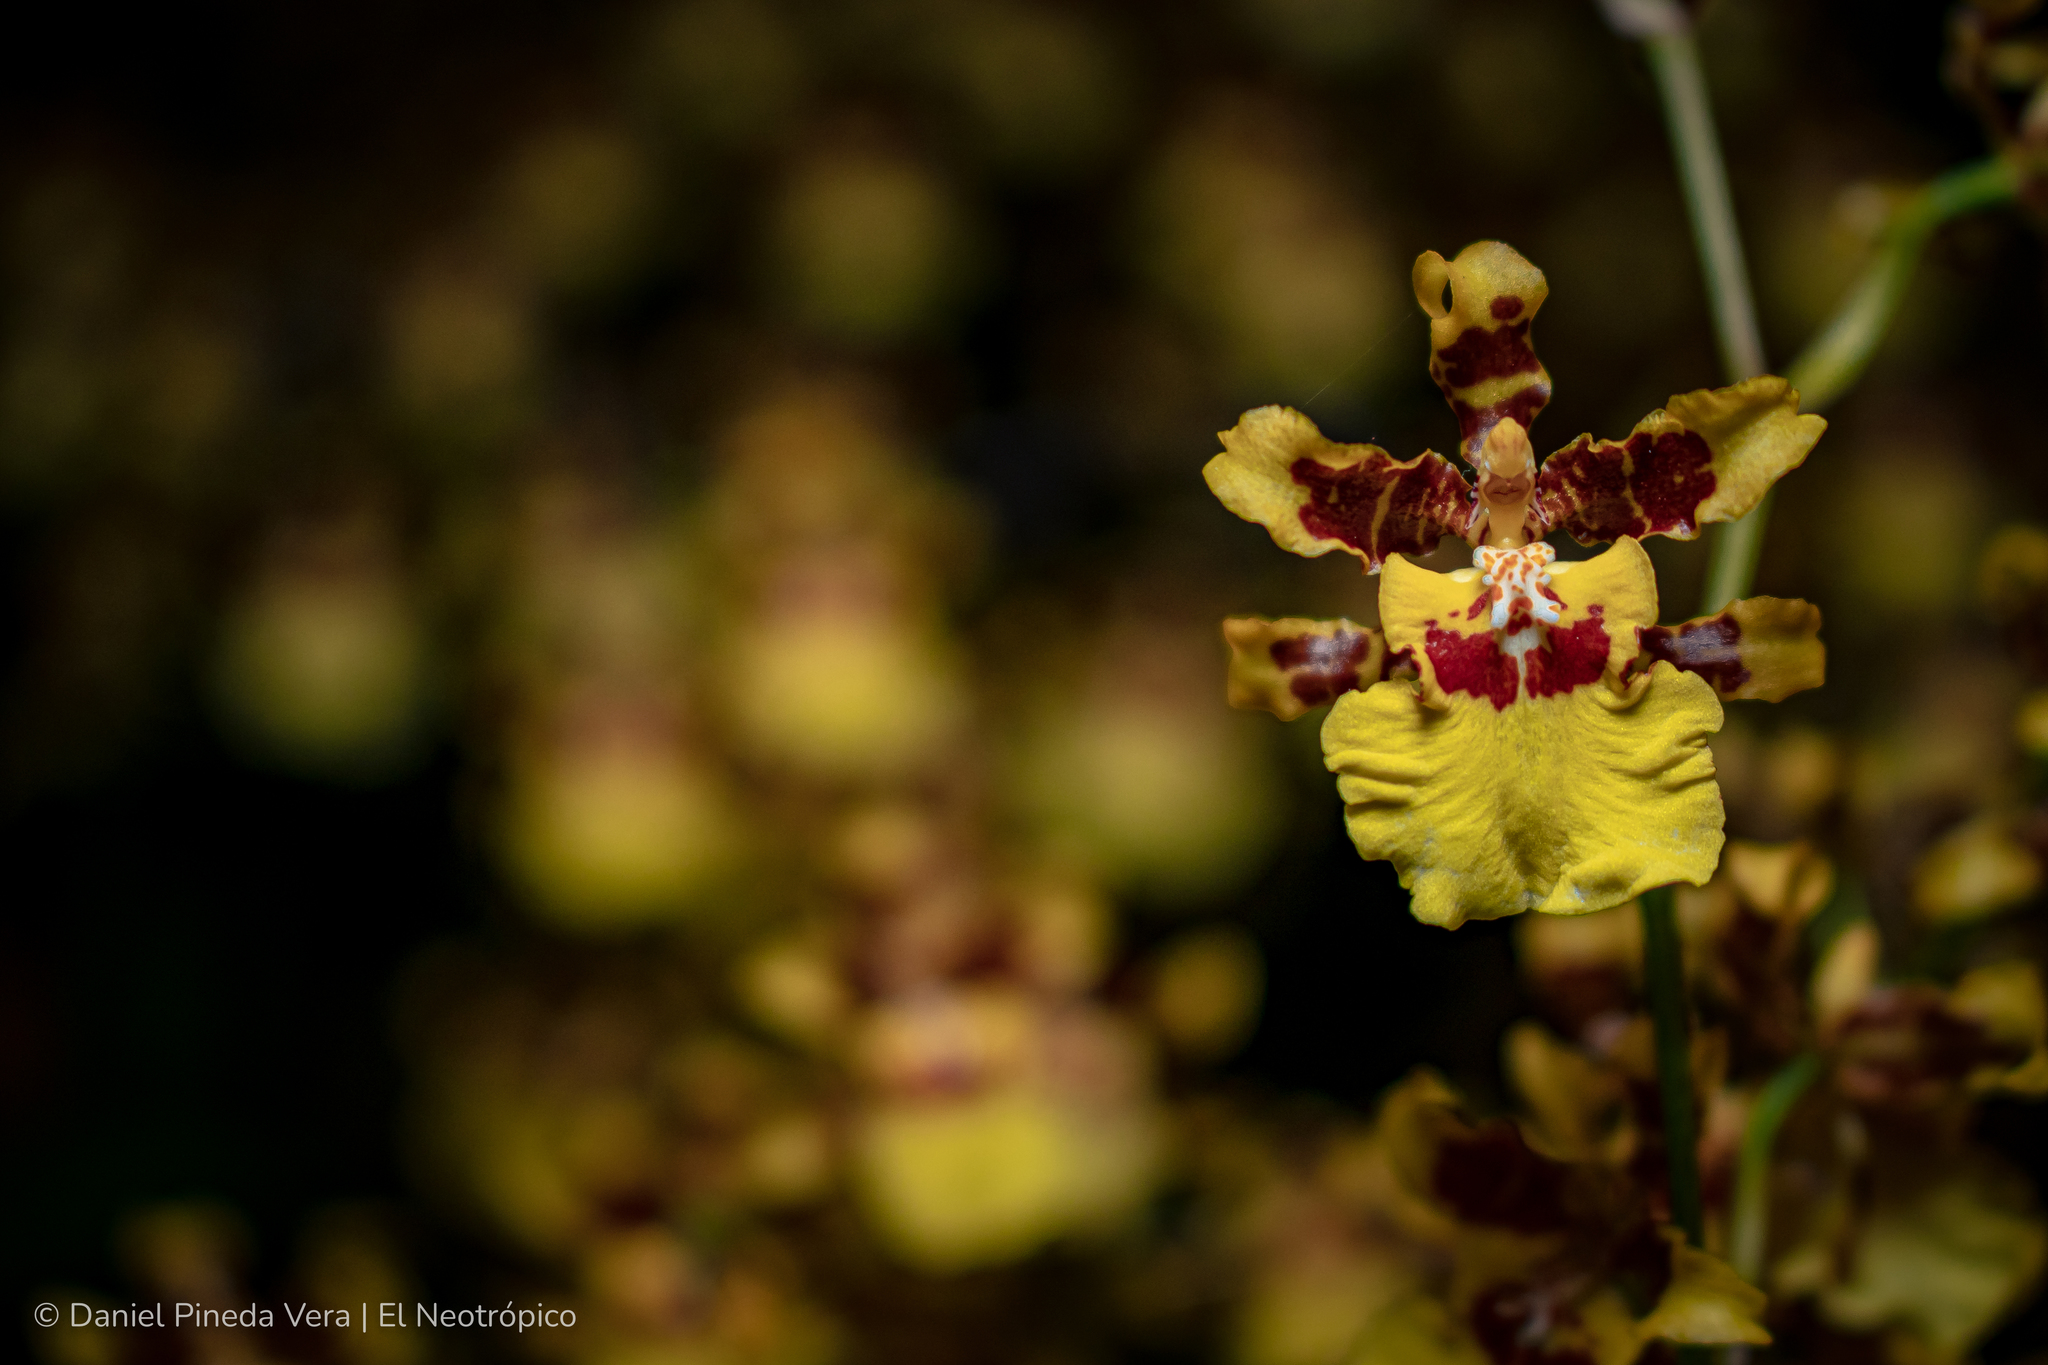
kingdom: Plantae
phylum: Tracheophyta
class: Liliopsida
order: Asparagales
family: Orchidaceae
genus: Oncidium
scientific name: Oncidium sphacelatum
